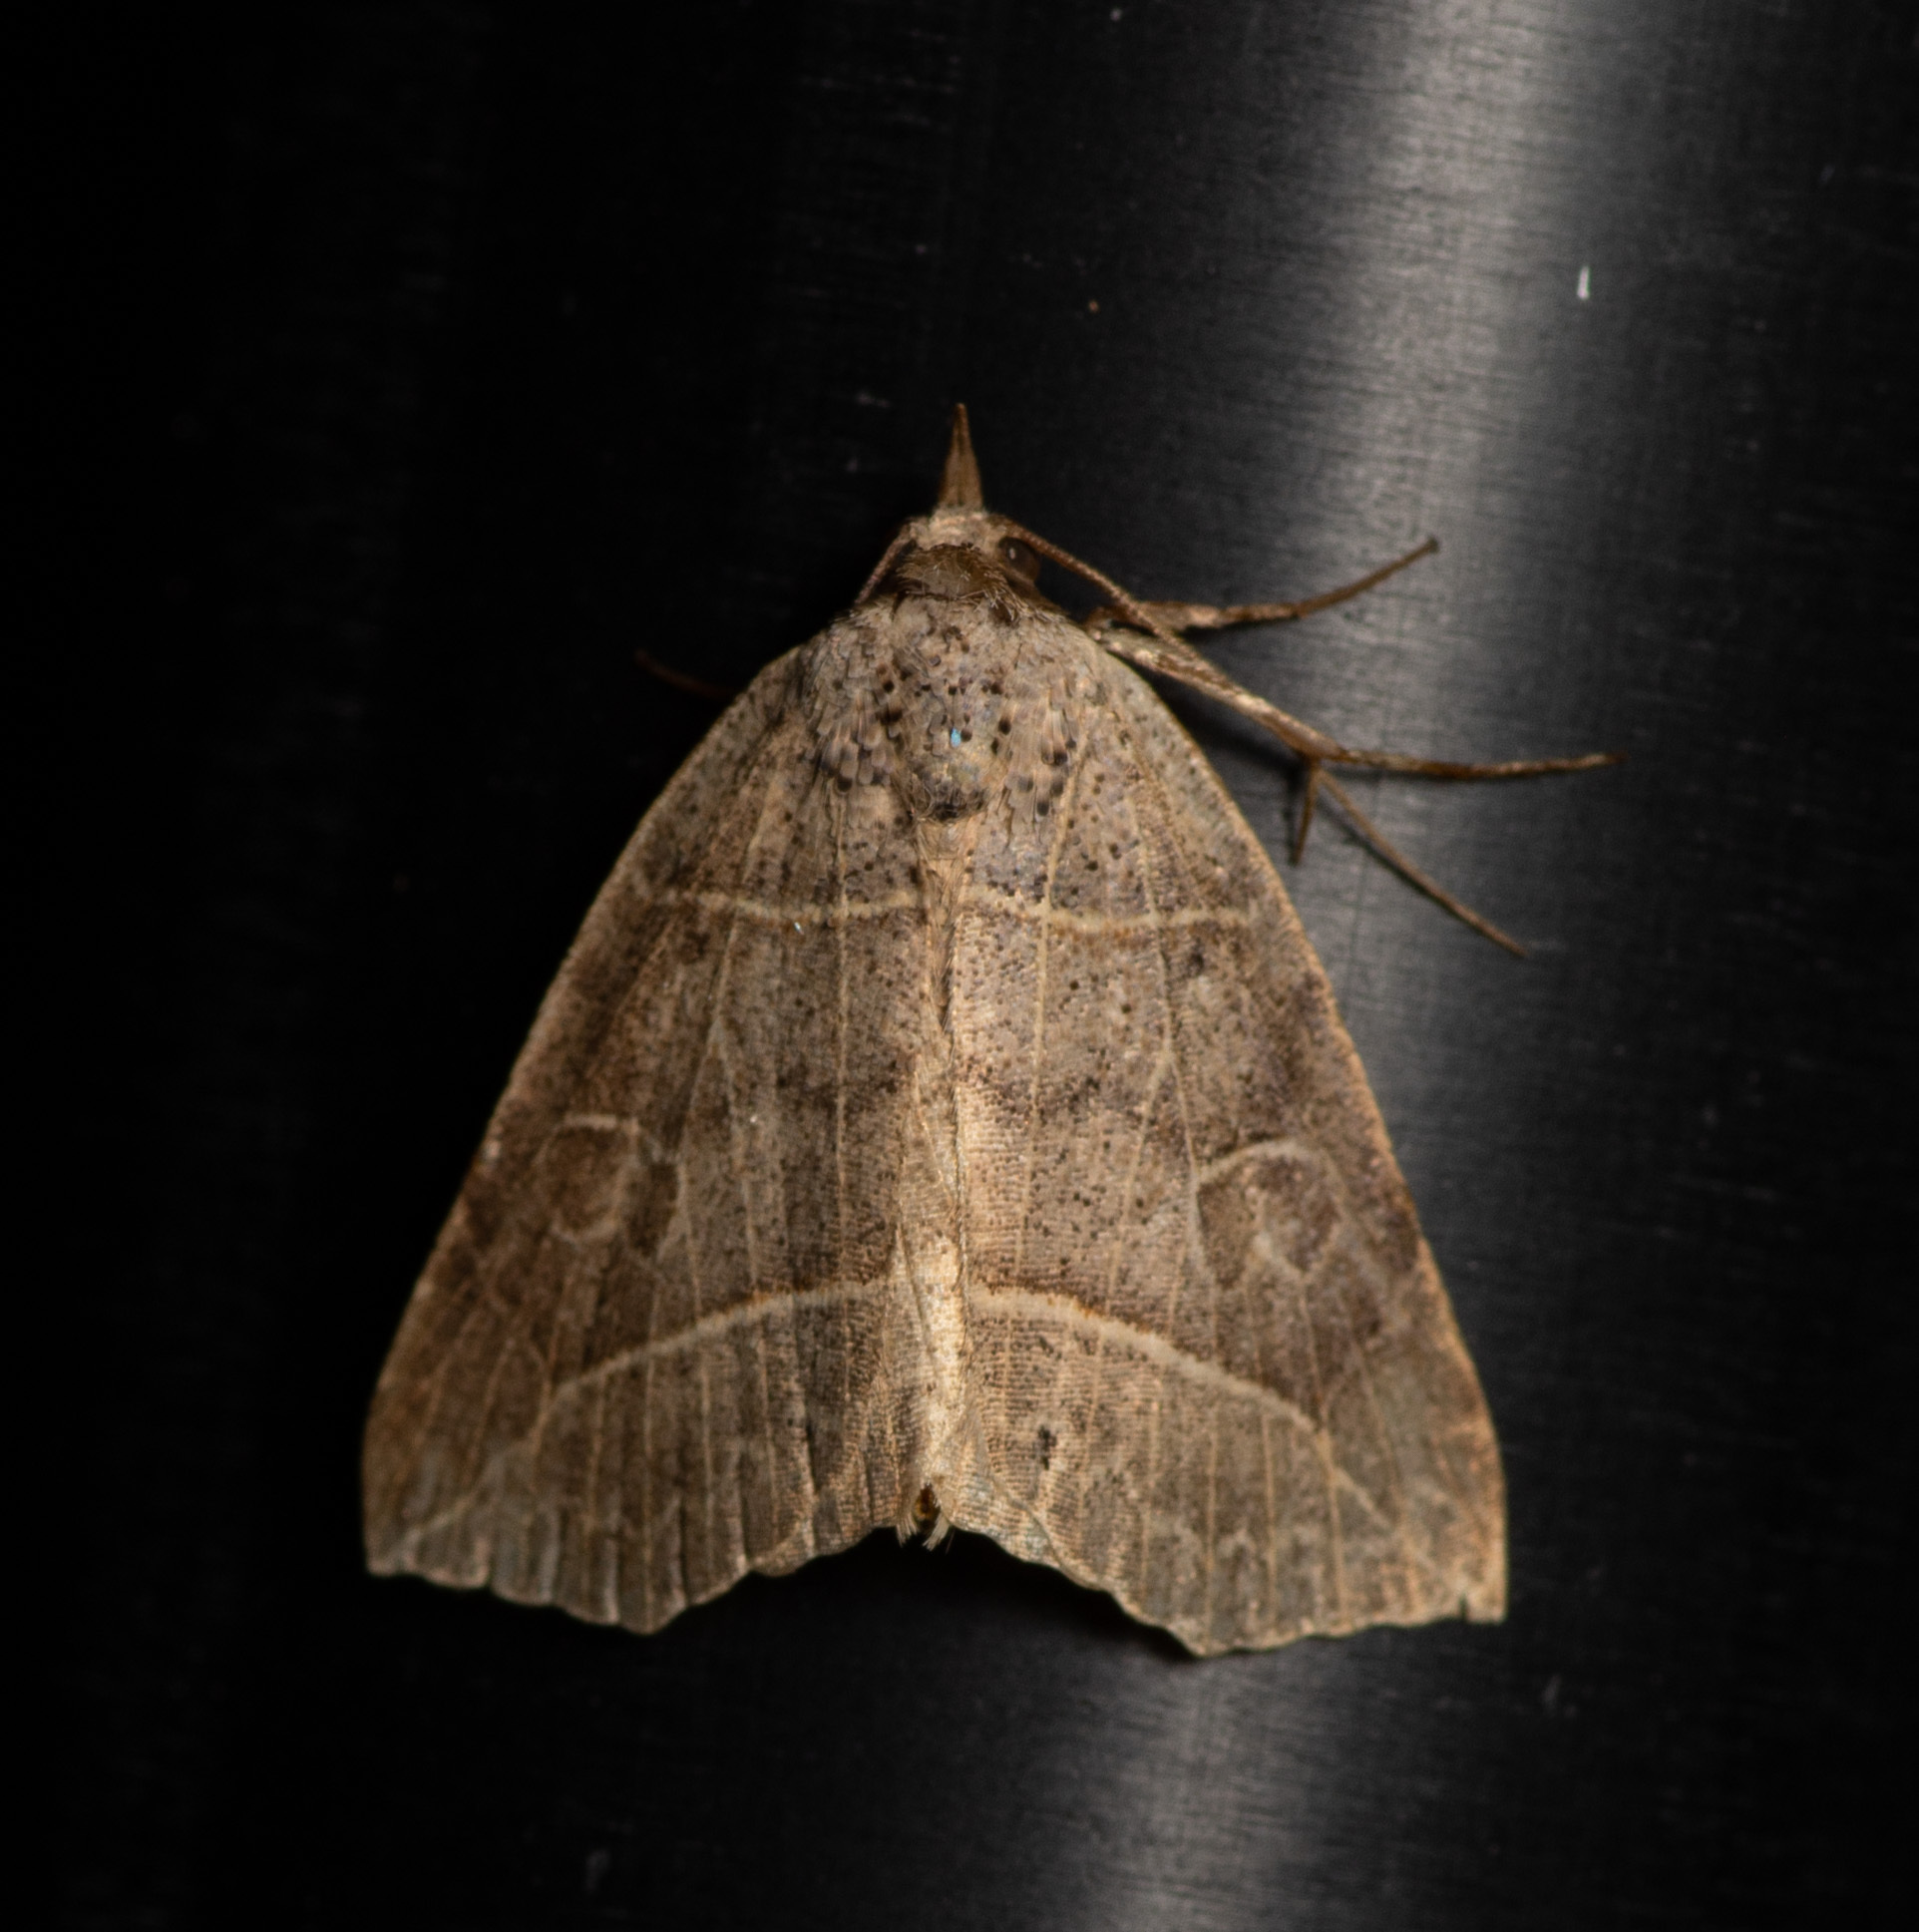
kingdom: Animalia
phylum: Arthropoda
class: Insecta
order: Lepidoptera
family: Erebidae
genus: Isogona
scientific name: Isogona tenuis
